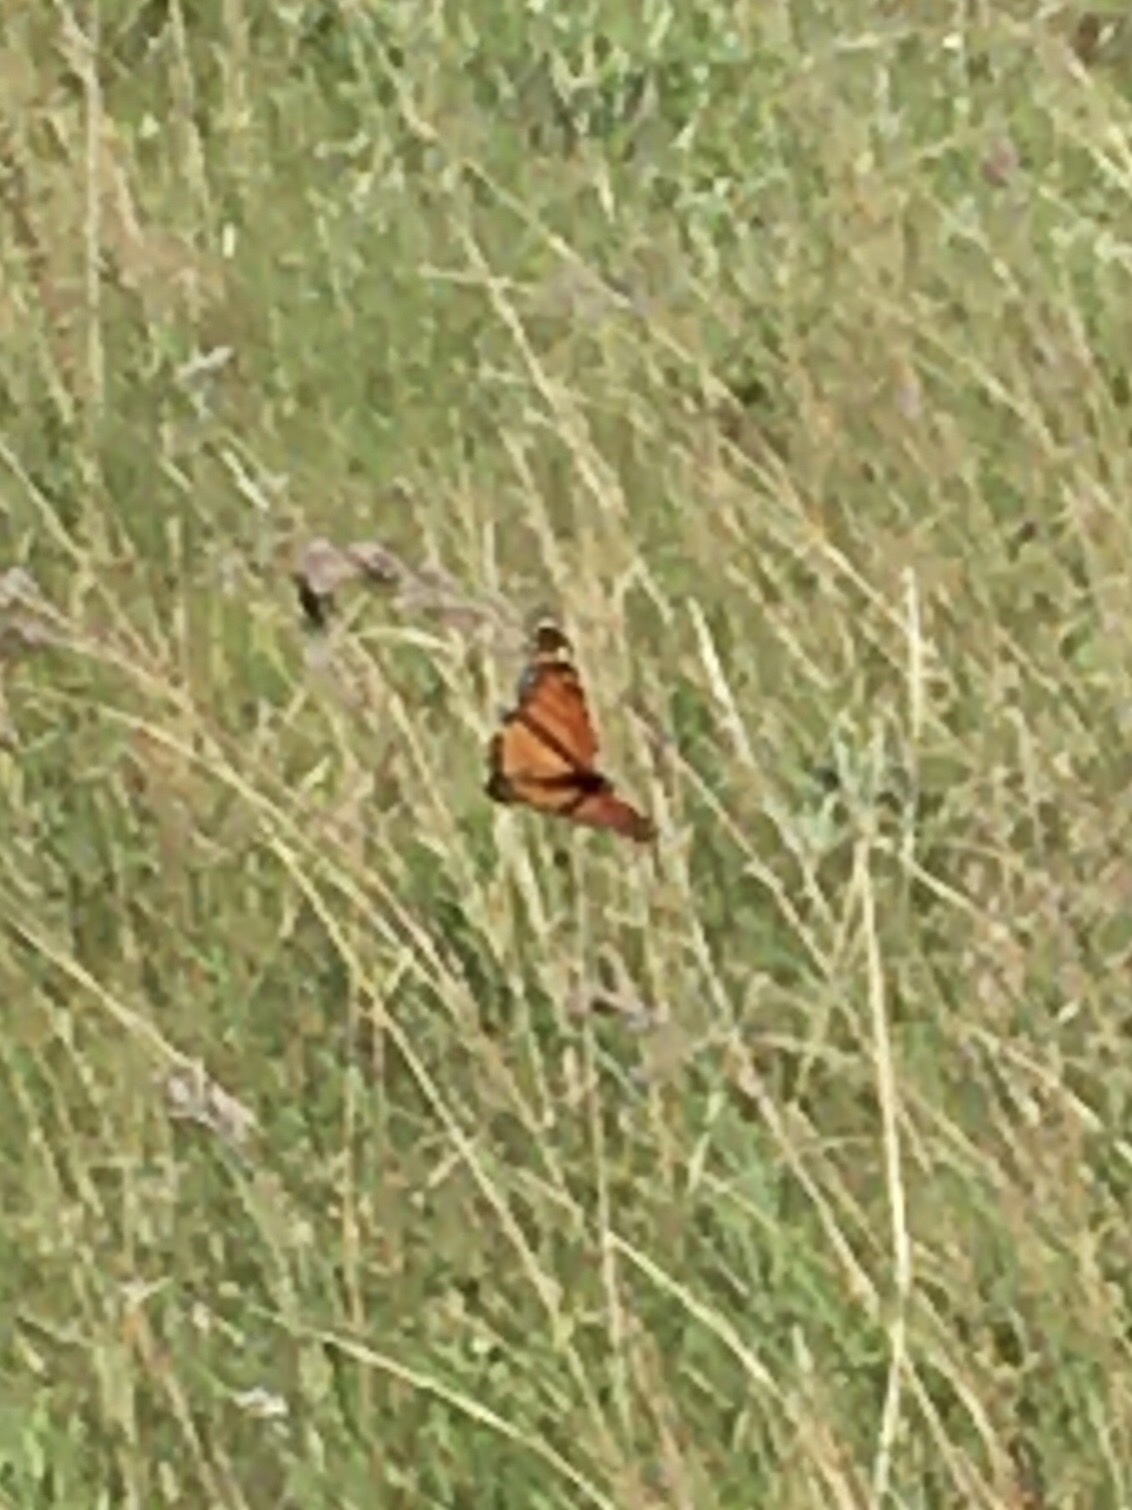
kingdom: Animalia
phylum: Arthropoda
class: Insecta
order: Lepidoptera
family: Nymphalidae
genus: Danaus
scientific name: Danaus plexippus
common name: Monarch
